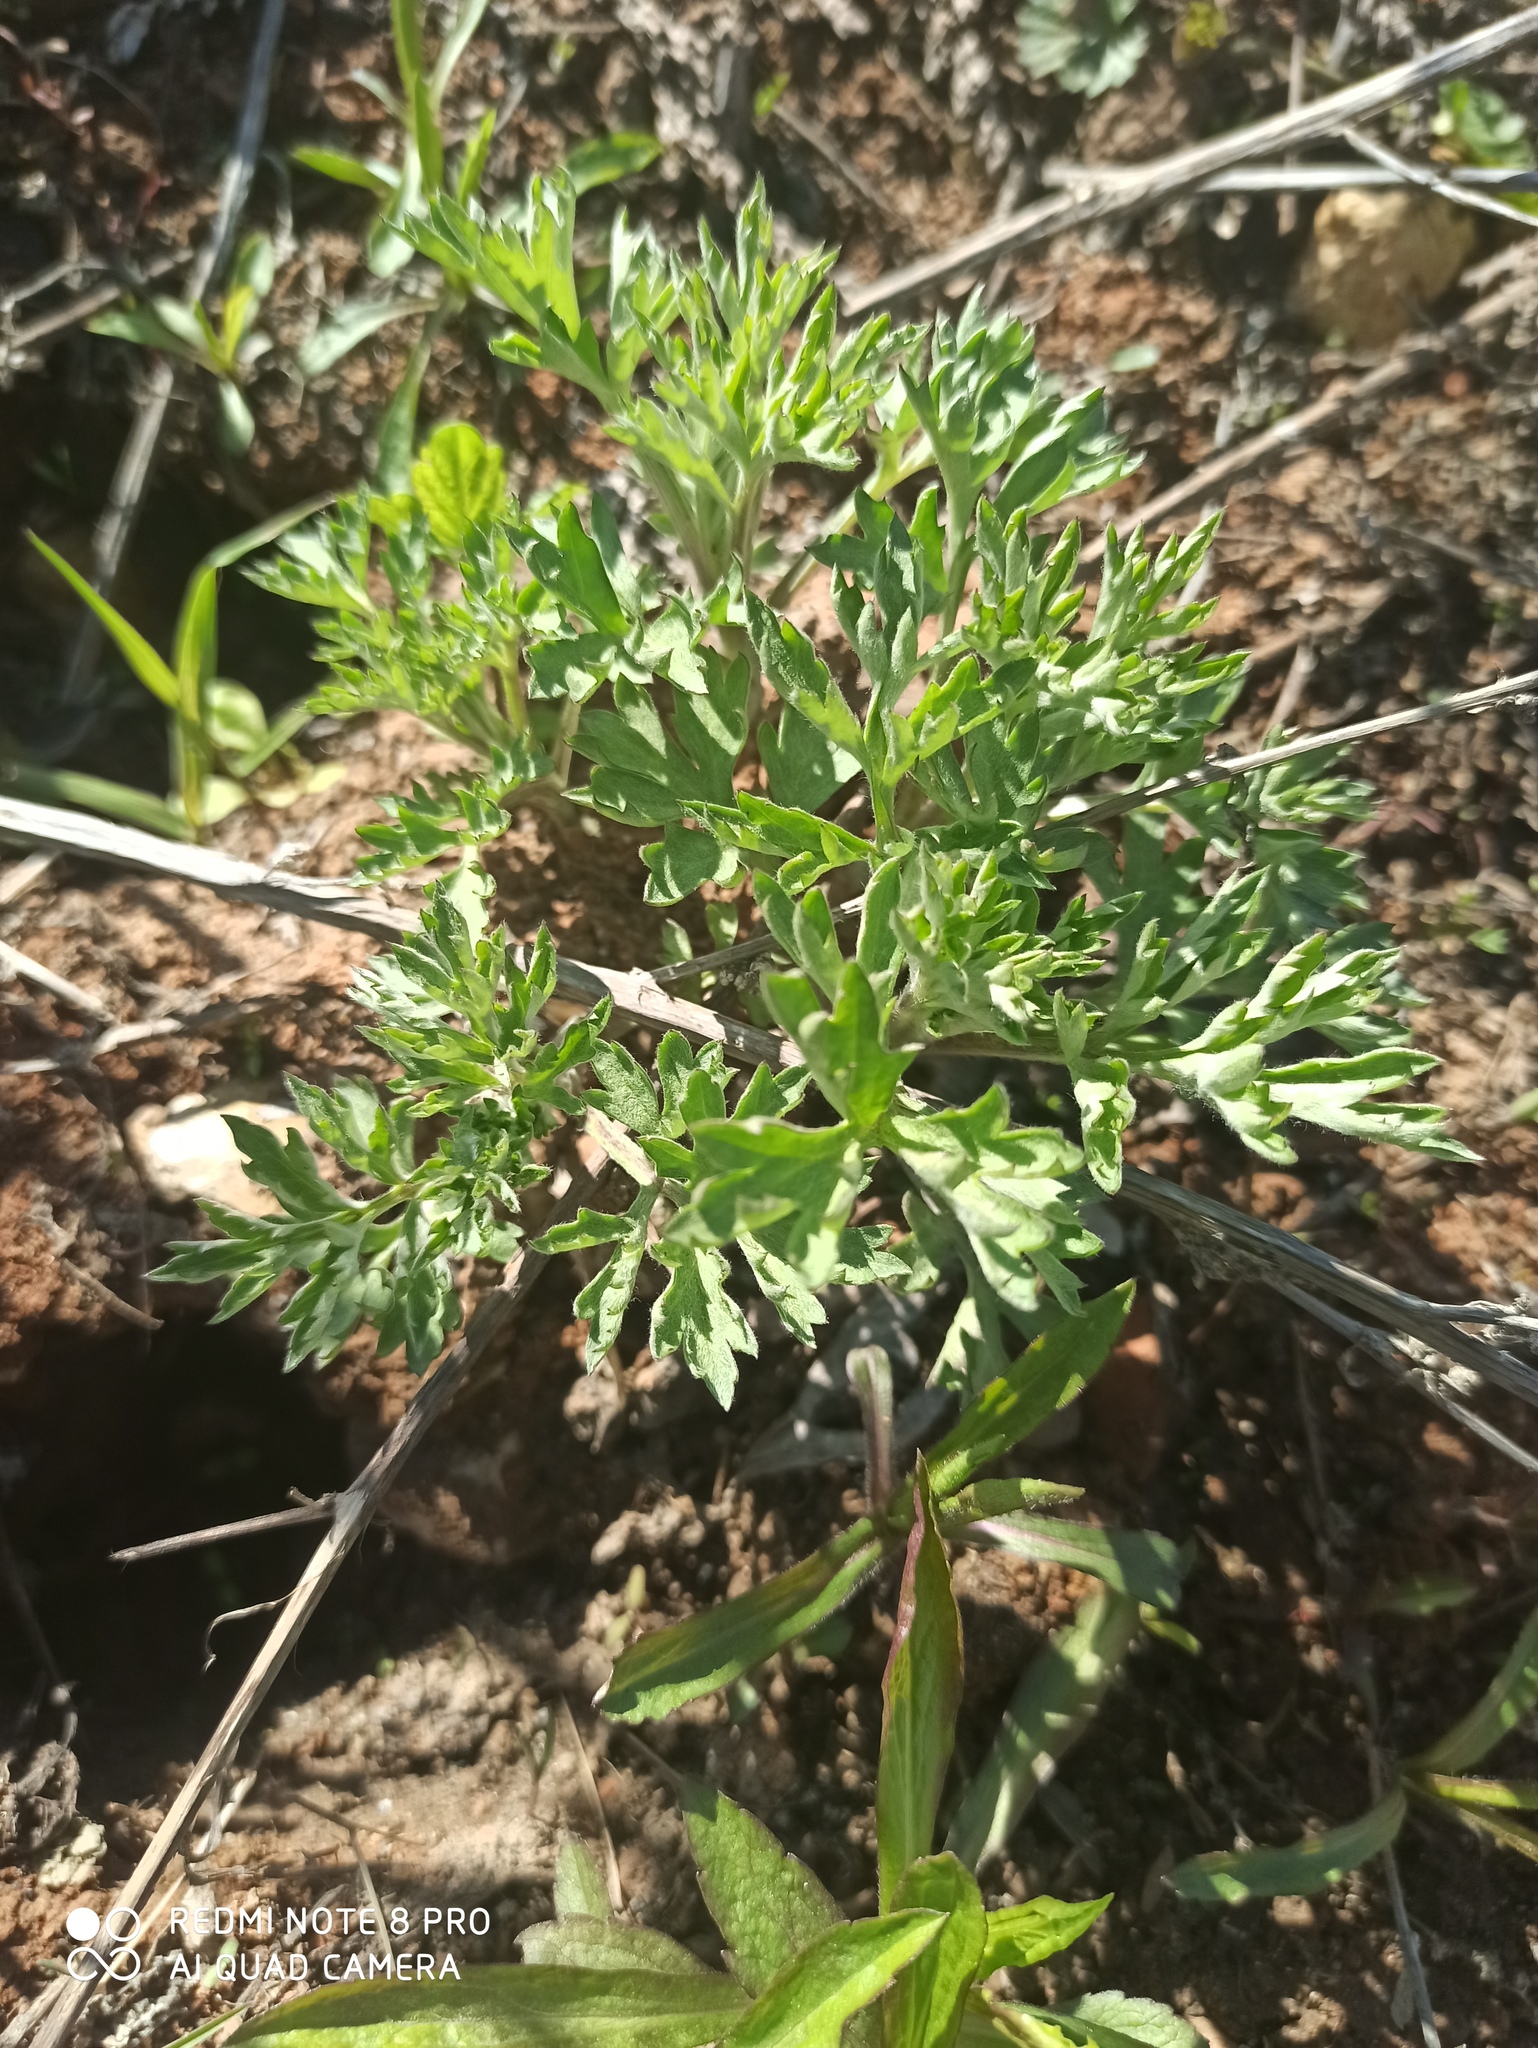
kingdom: Plantae
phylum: Tracheophyta
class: Magnoliopsida
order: Asterales
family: Asteraceae
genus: Artemisia
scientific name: Artemisia vulgaris
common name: Mugwort
